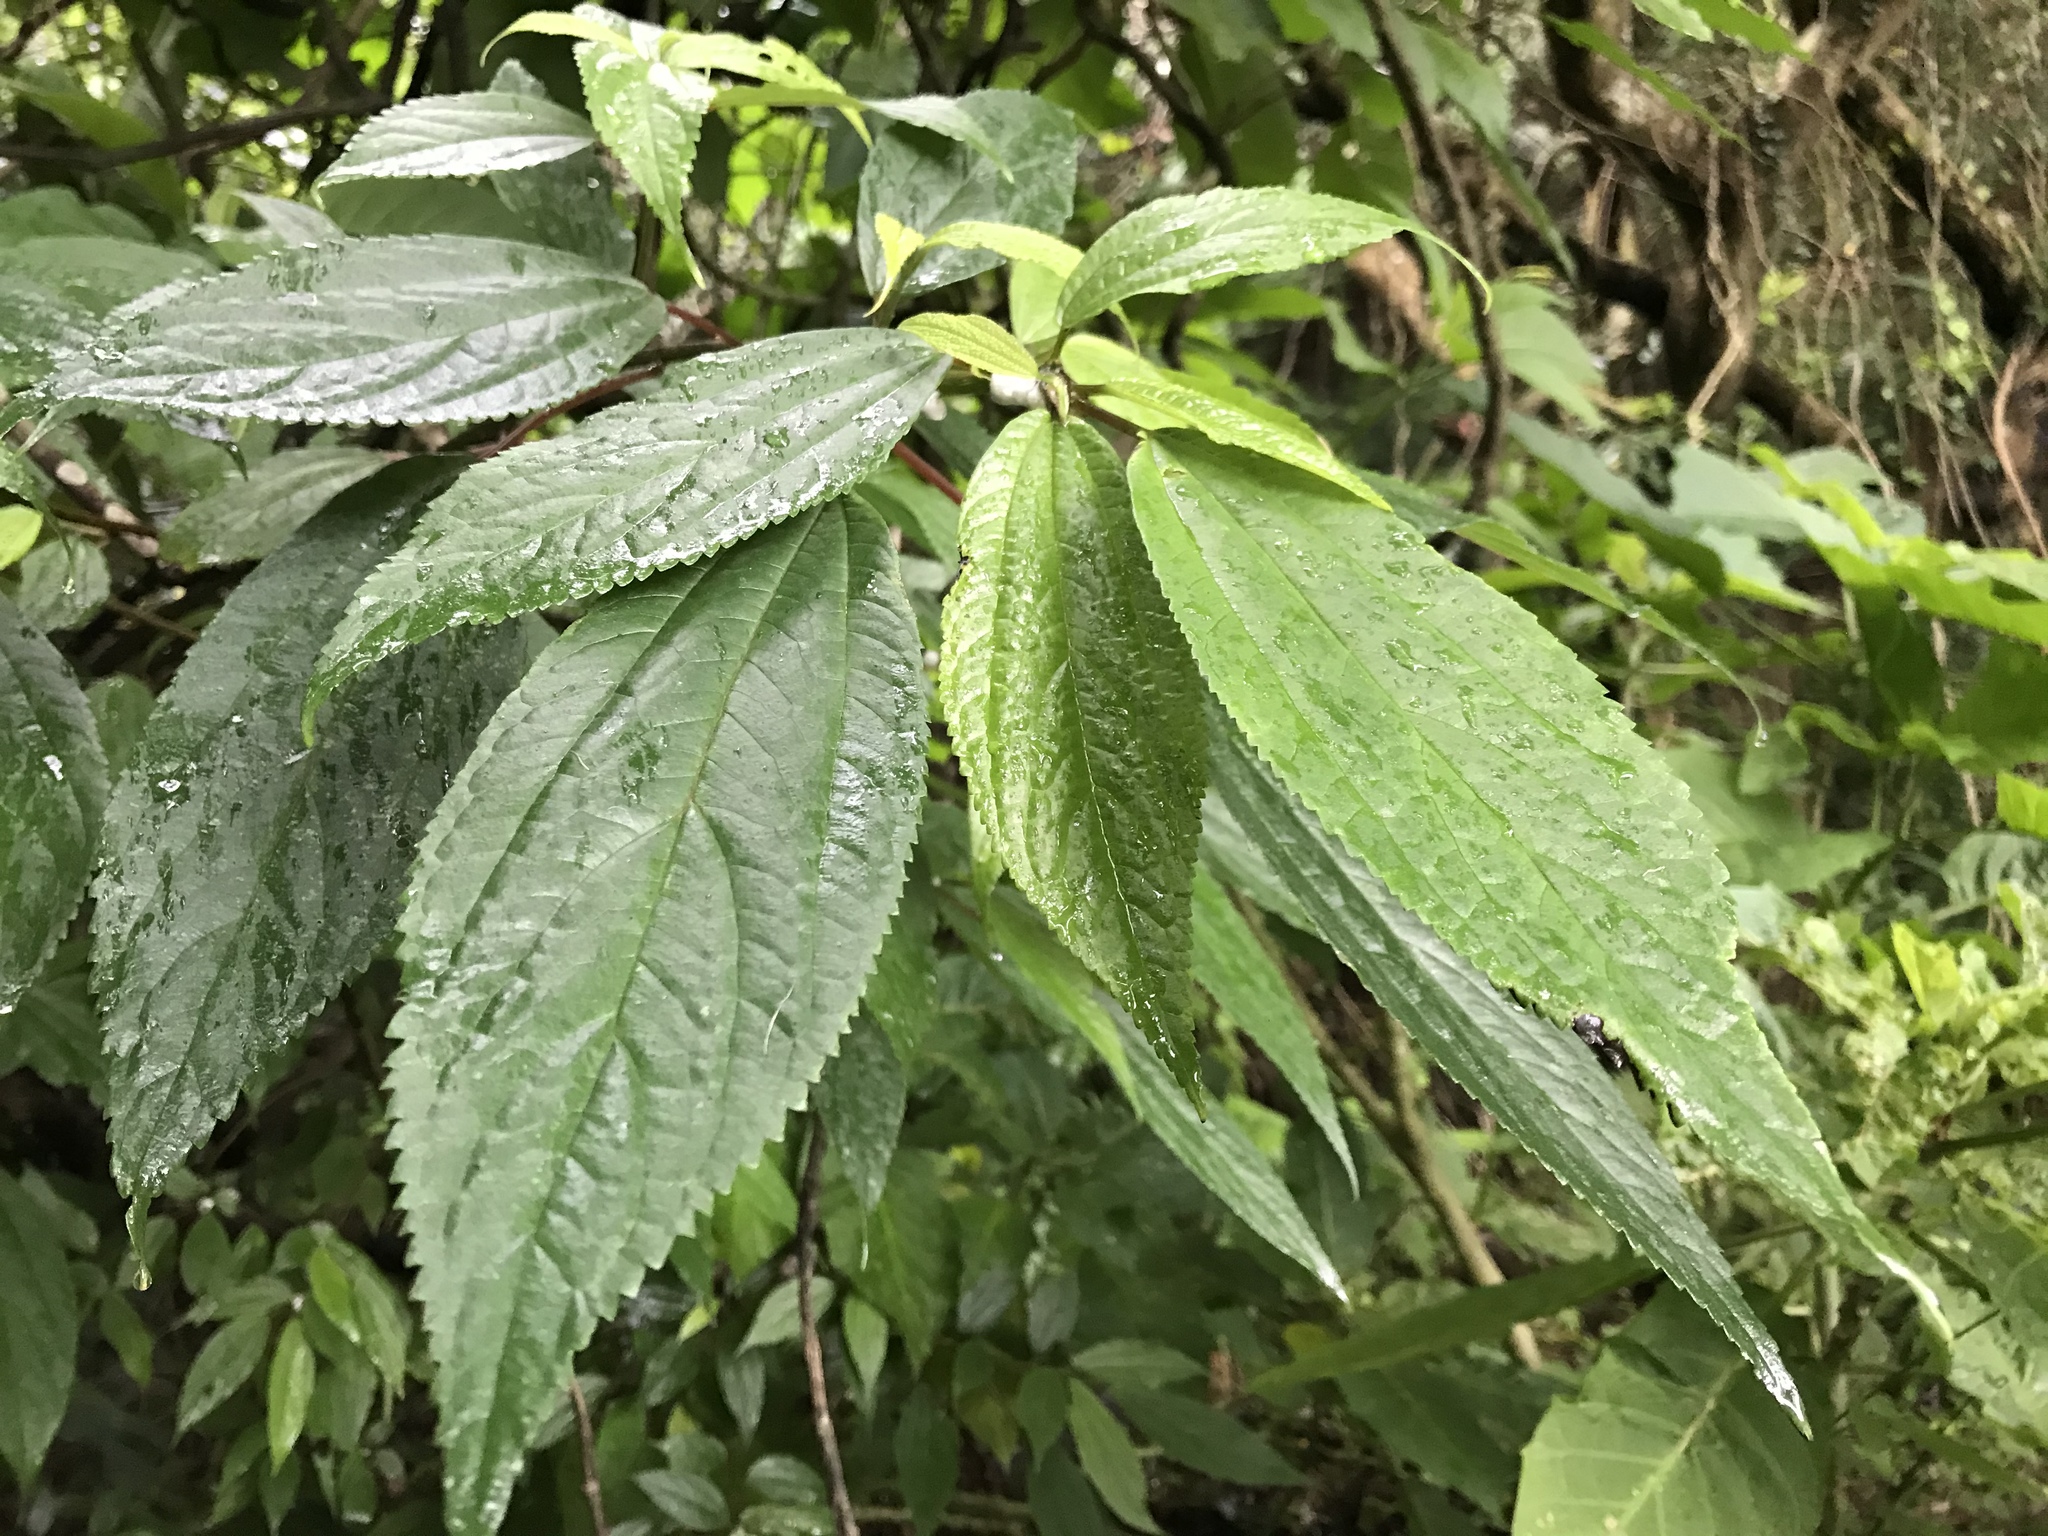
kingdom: Plantae
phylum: Tracheophyta
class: Magnoliopsida
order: Rosales
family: Urticaceae
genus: Oreocnide
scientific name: Oreocnide pedunculata
